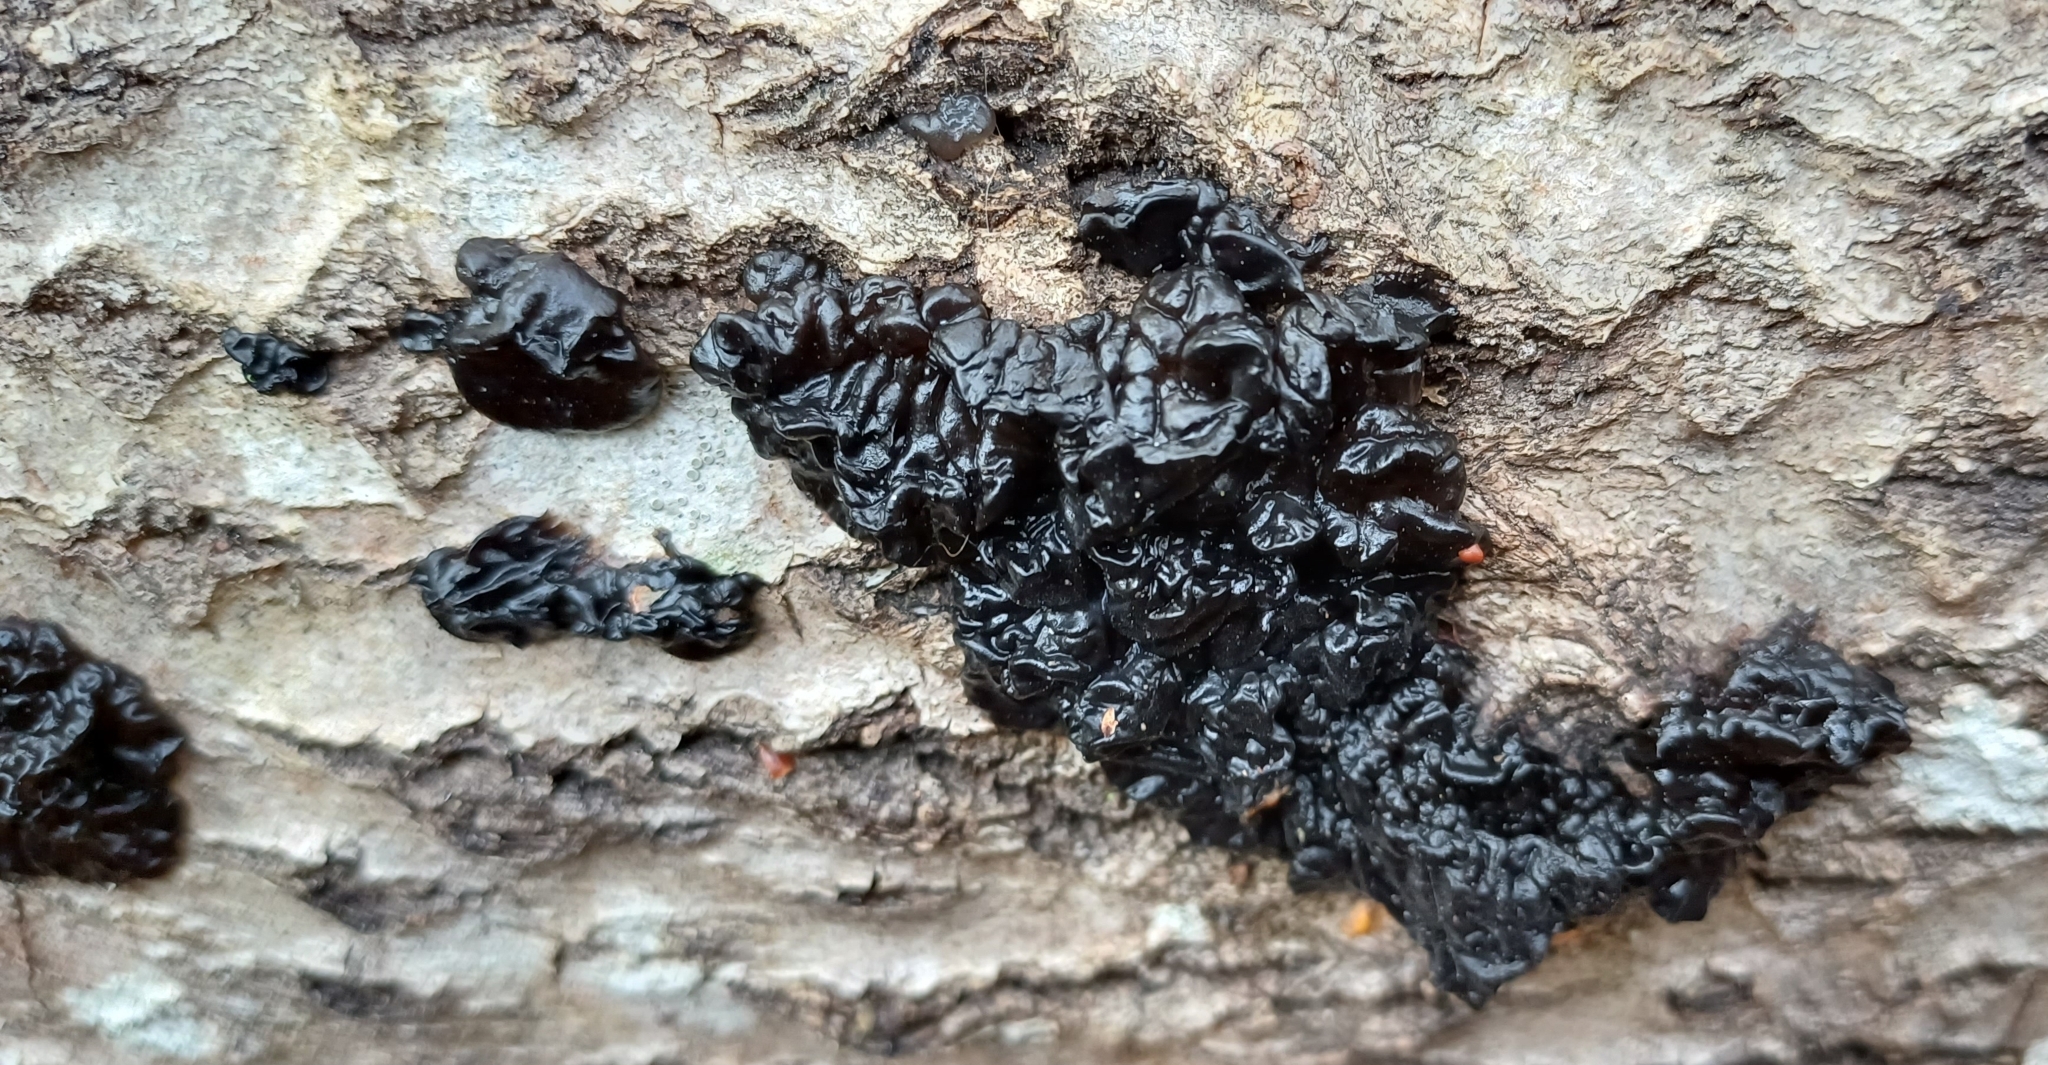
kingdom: Fungi
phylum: Basidiomycota
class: Agaricomycetes
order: Auriculariales
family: Auriculariaceae
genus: Exidia
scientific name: Exidia nigricans
